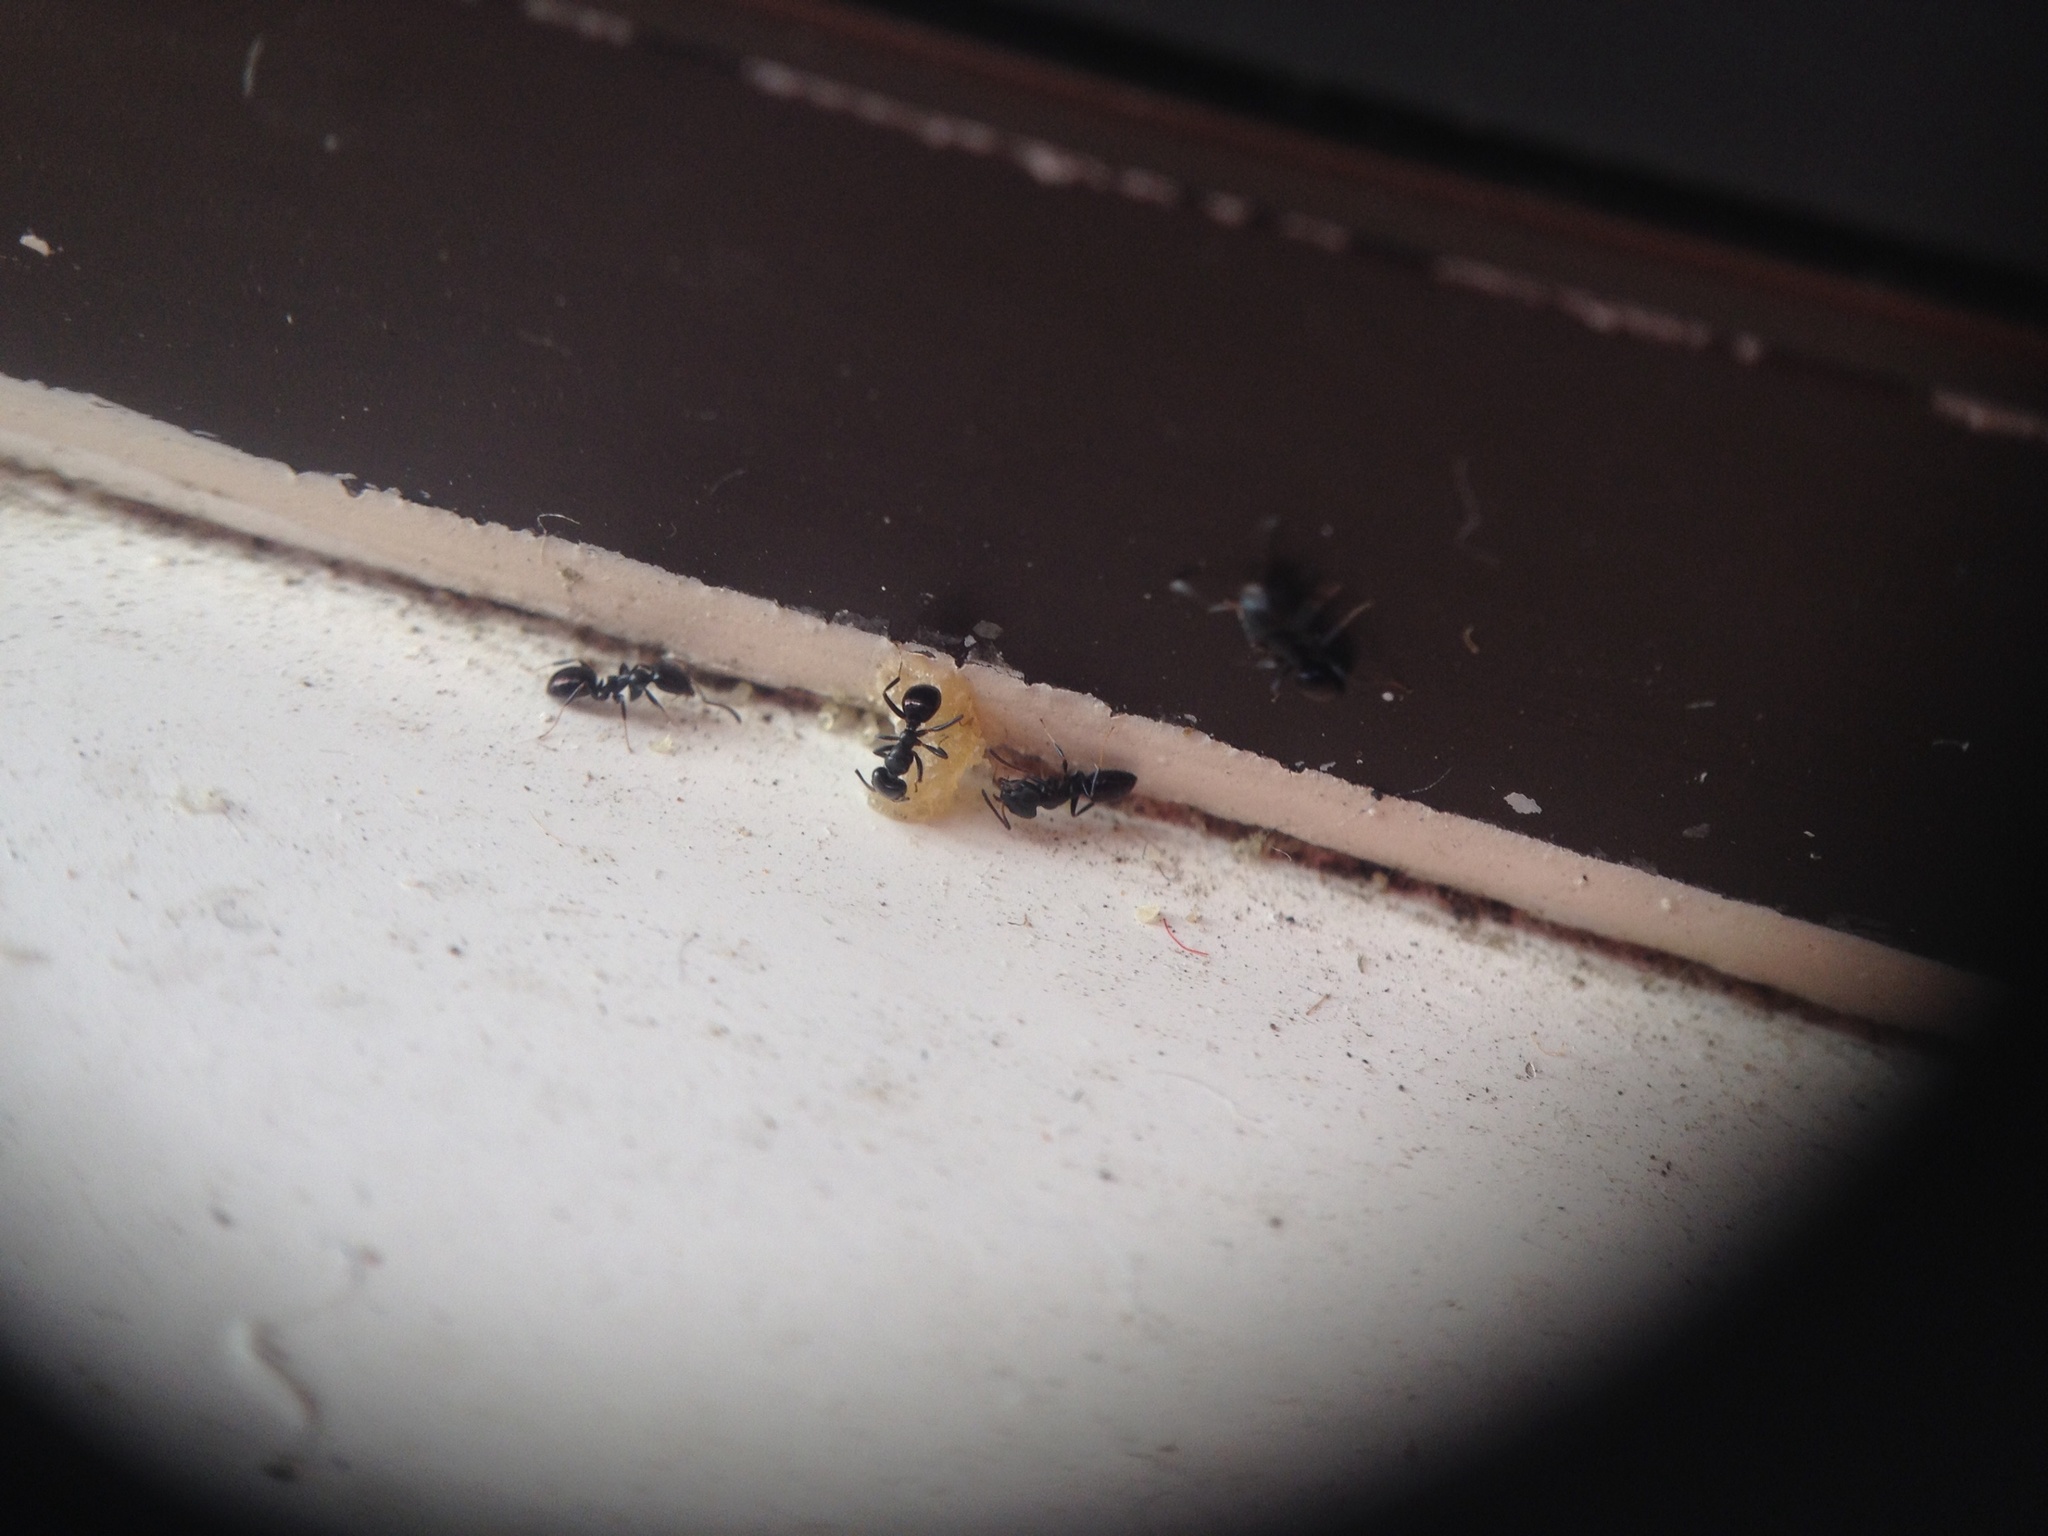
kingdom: Animalia
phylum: Arthropoda
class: Insecta
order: Hymenoptera
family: Formicidae
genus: Ochetellus
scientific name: Ochetellus glaber
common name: Ant
